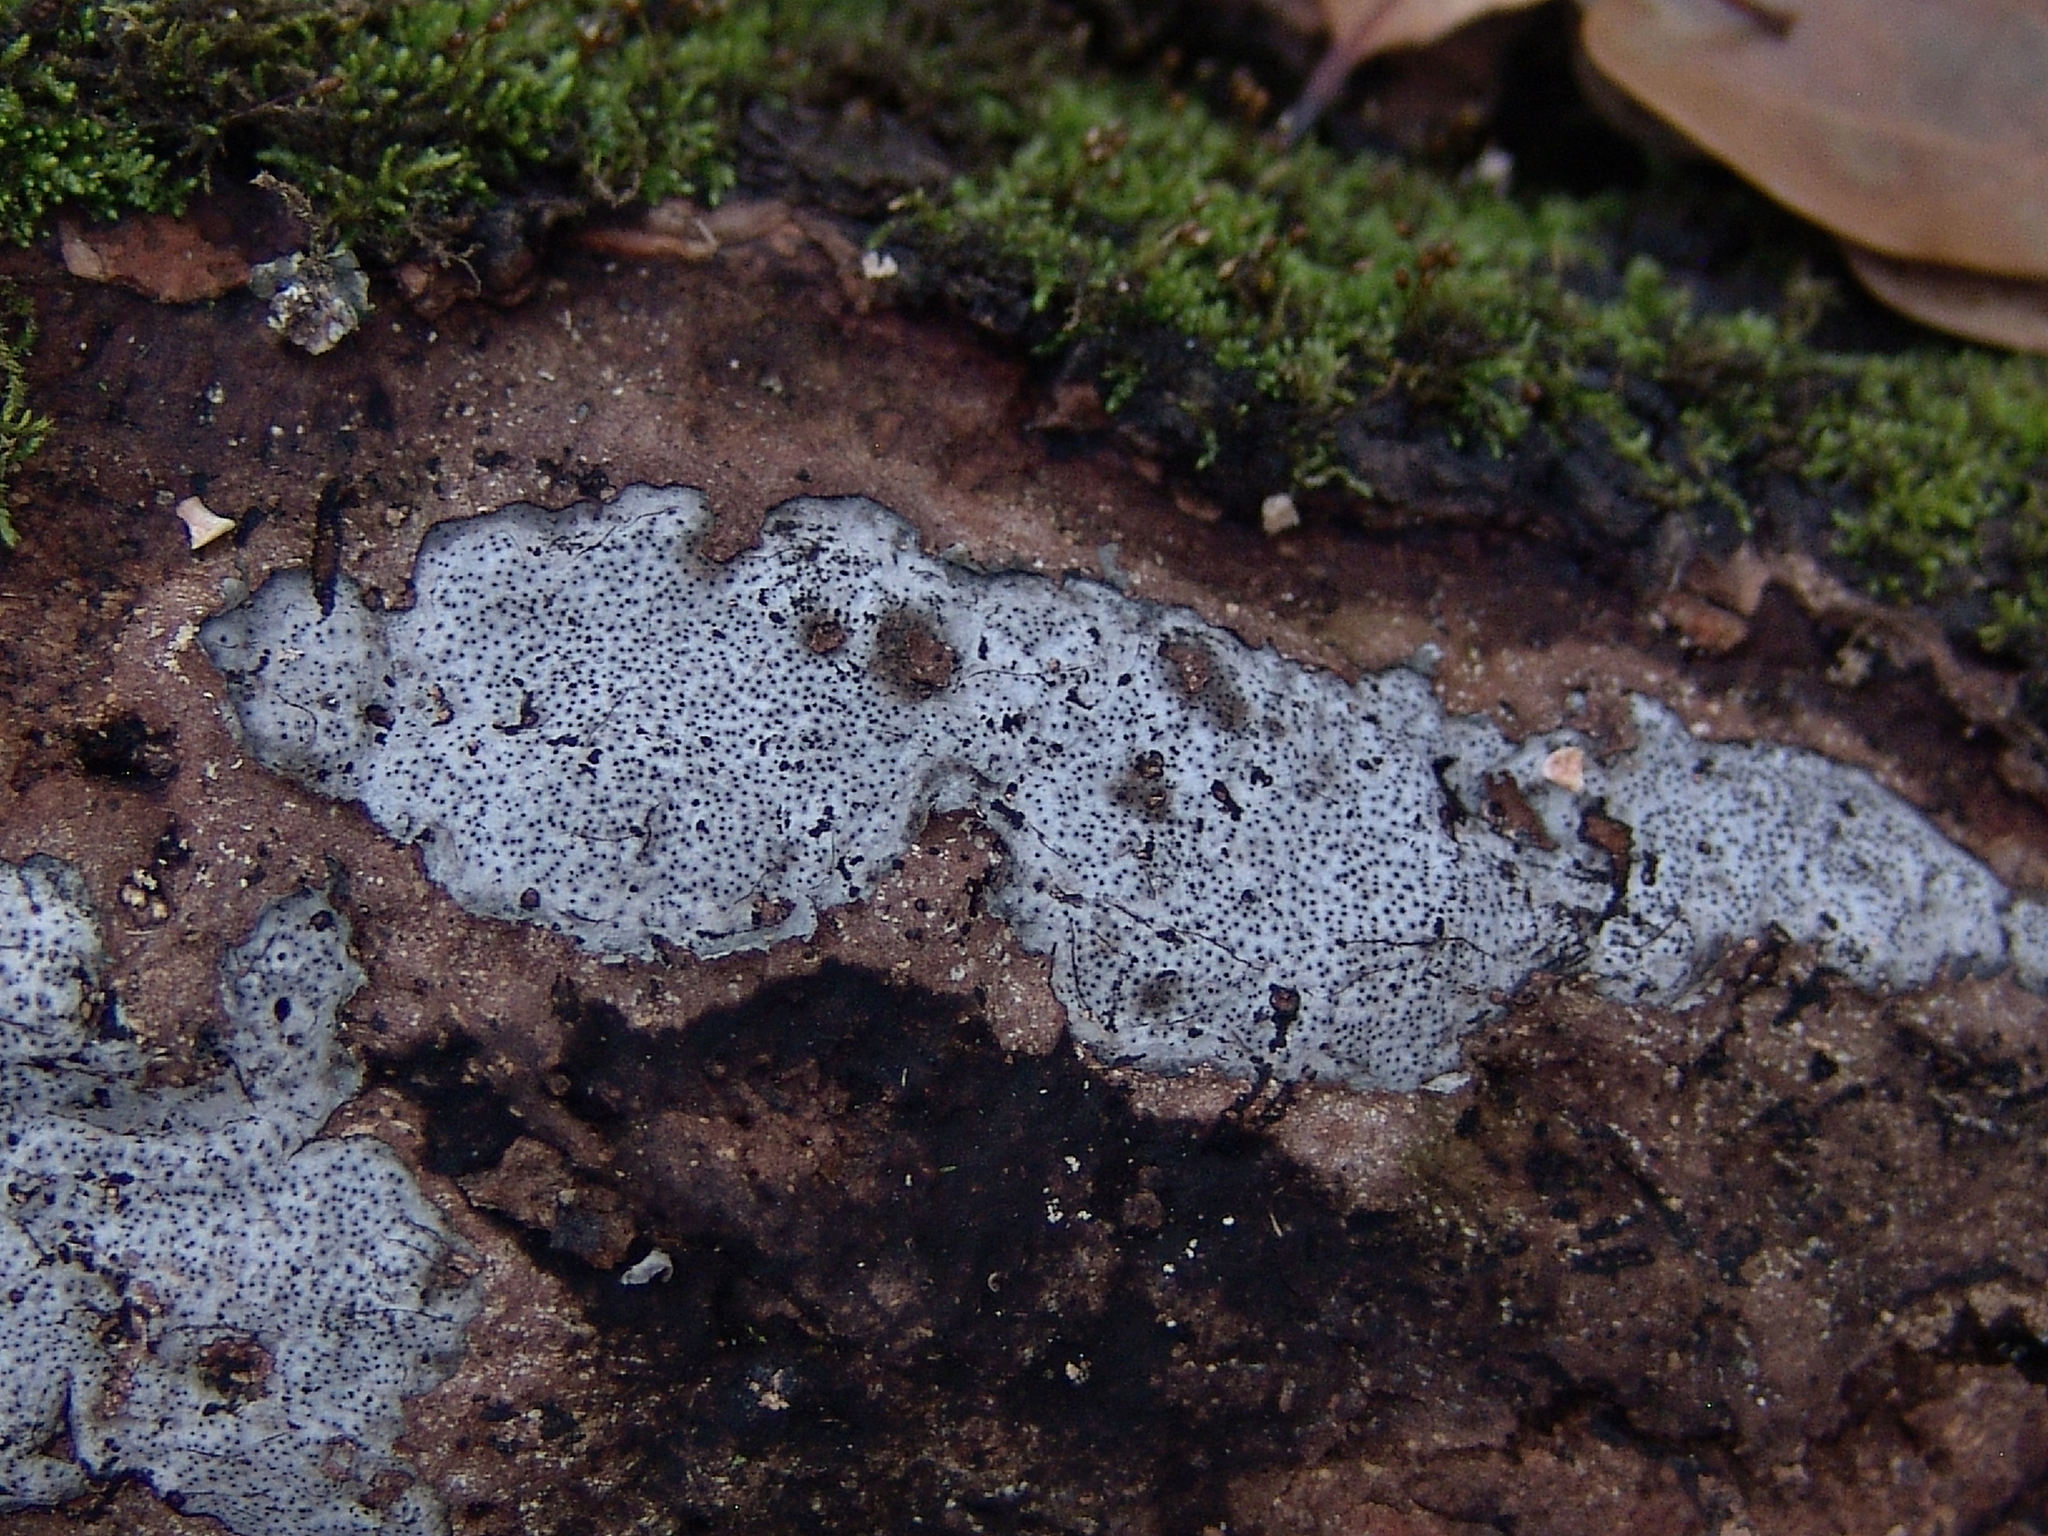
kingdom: Fungi
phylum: Ascomycota
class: Sordariomycetes
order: Xylariales
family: Graphostromataceae
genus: Biscogniauxia
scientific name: Biscogniauxia atropunctata
